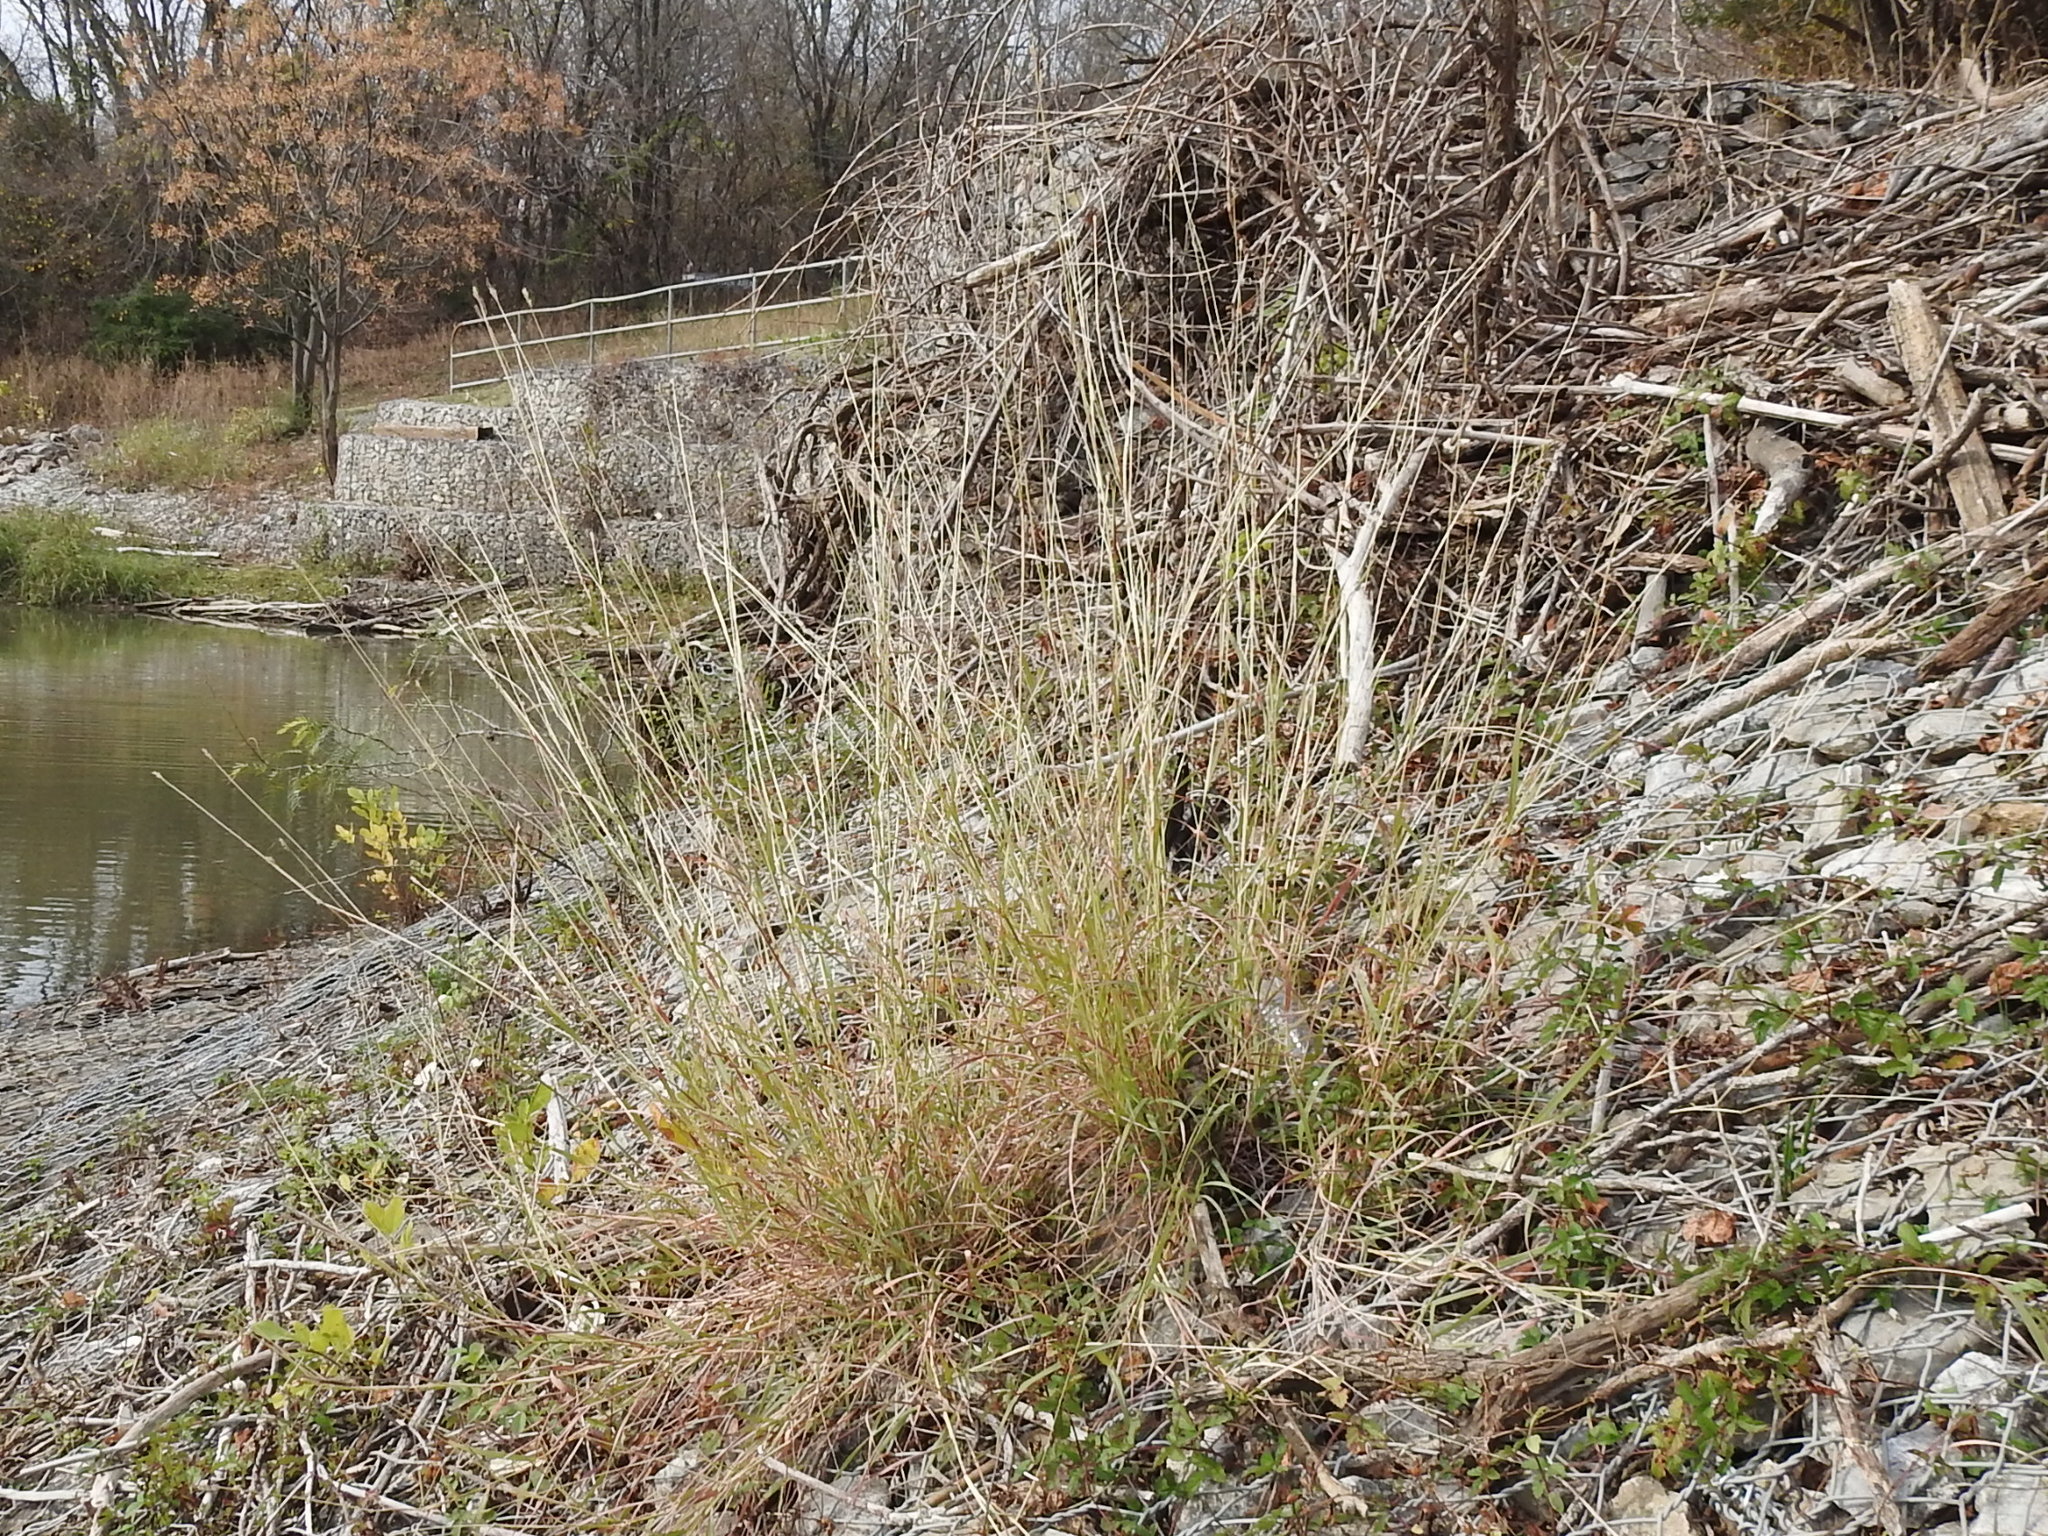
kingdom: Plantae
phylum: Tracheophyta
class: Liliopsida
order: Poales
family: Poaceae
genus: Dichanthium
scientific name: Dichanthium annulatum
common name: Kleberg's bluestem
